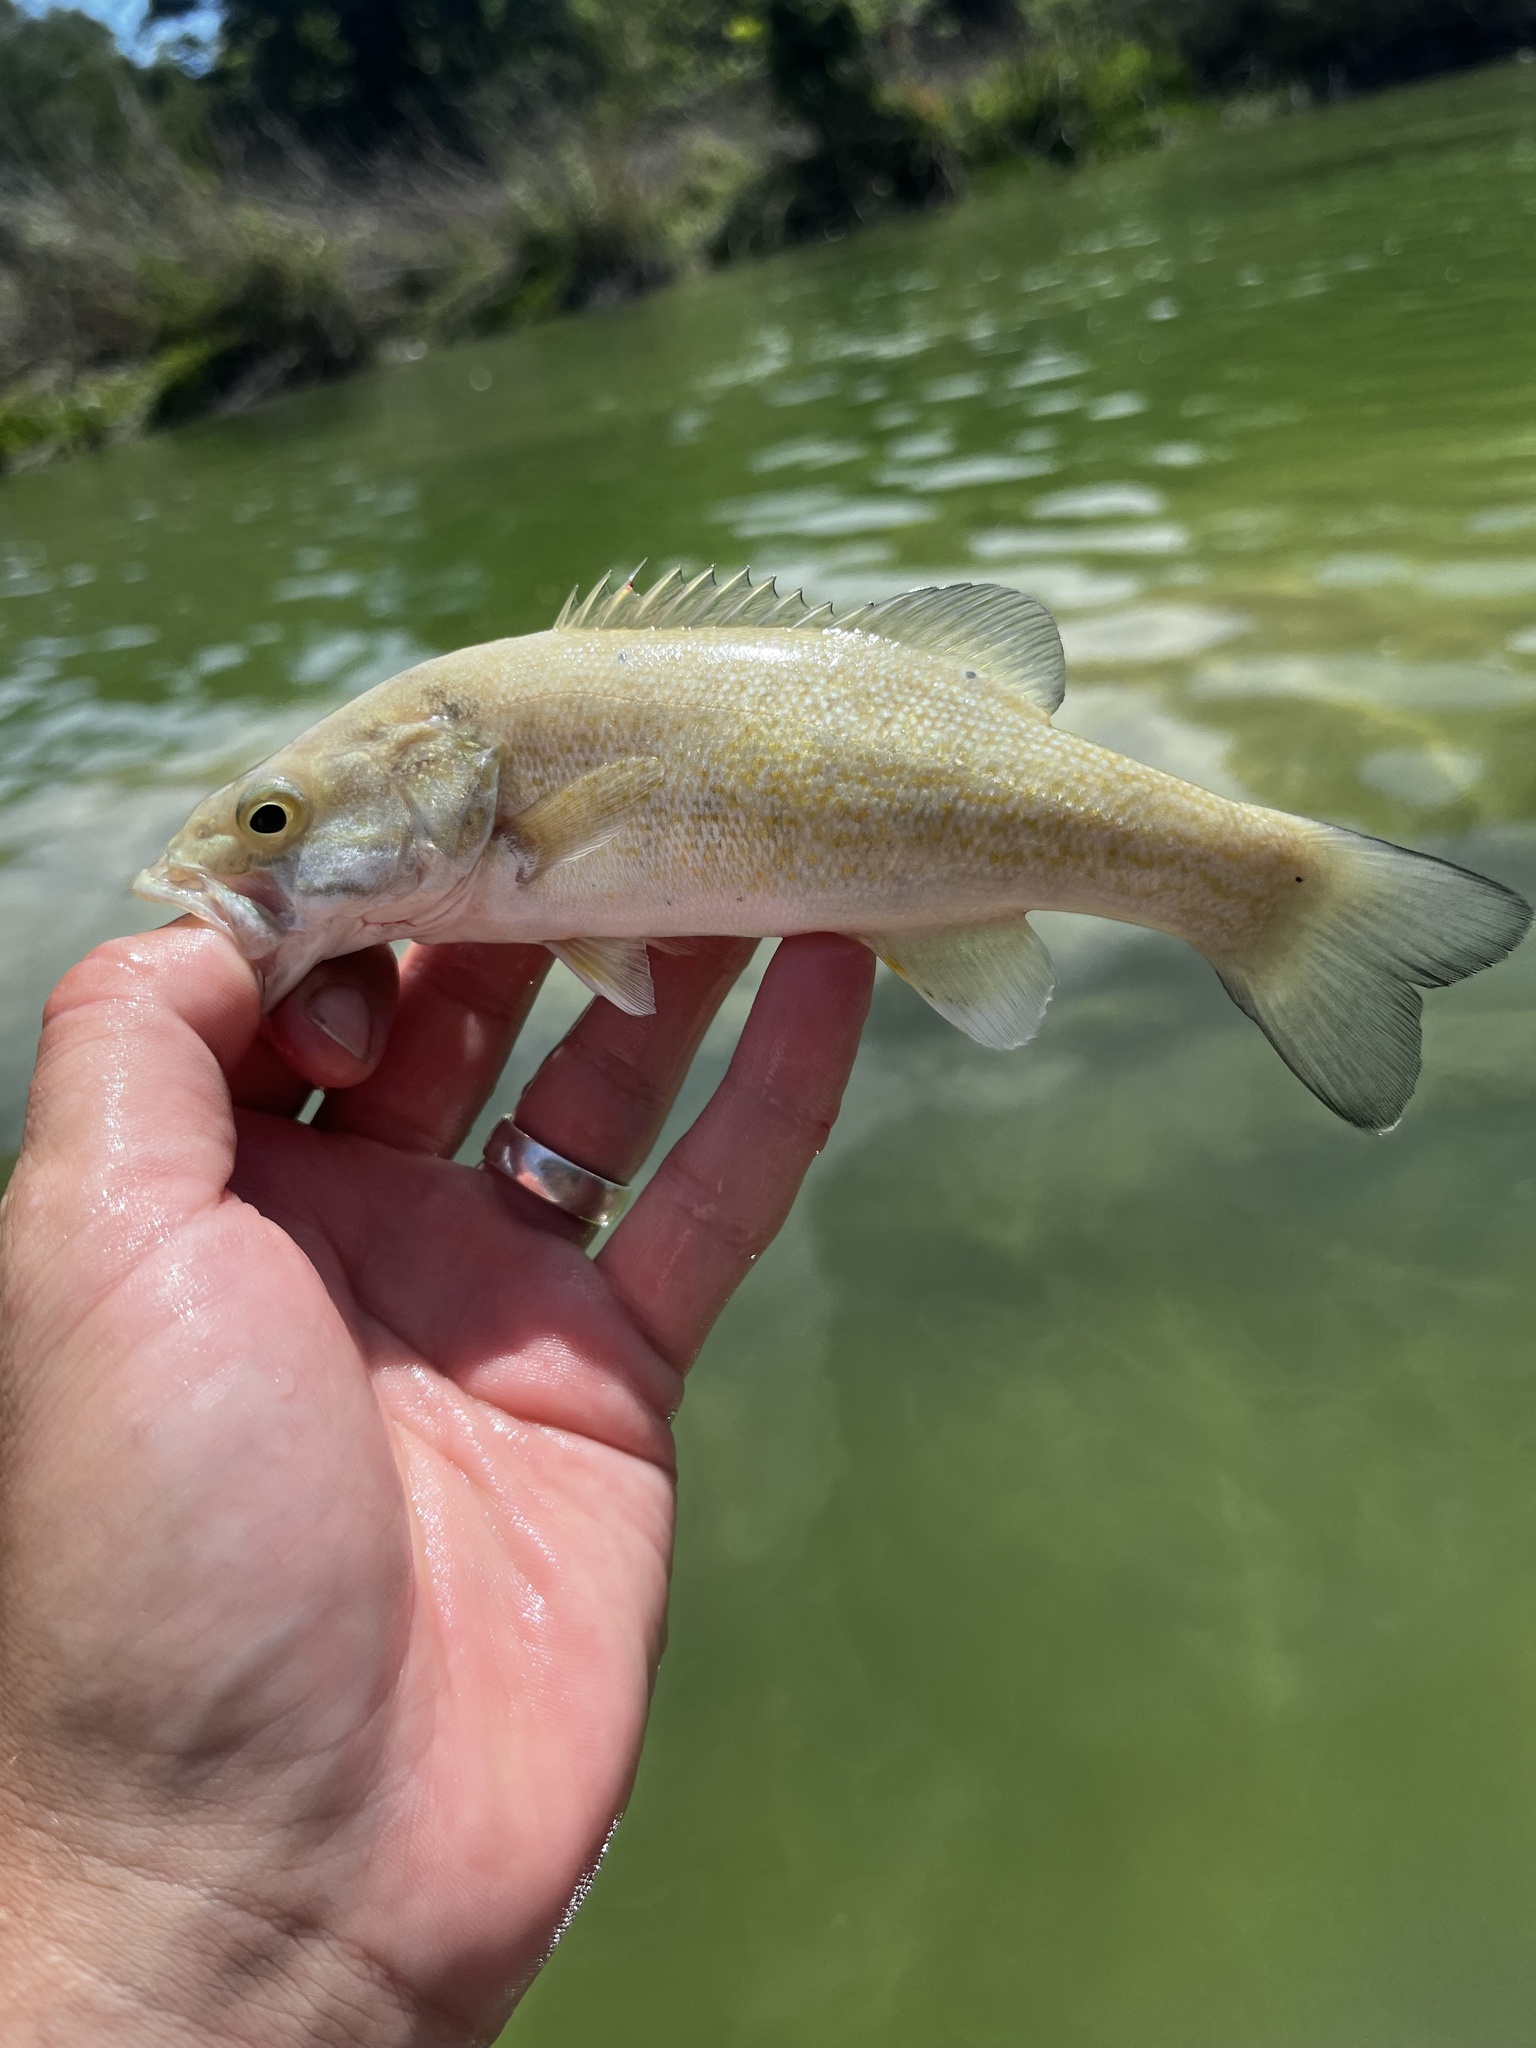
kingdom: Animalia
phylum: Chordata
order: Perciformes
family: Centrarchidae
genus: Micropterus
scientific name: Micropterus dolomieu
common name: Smallmouth bass
